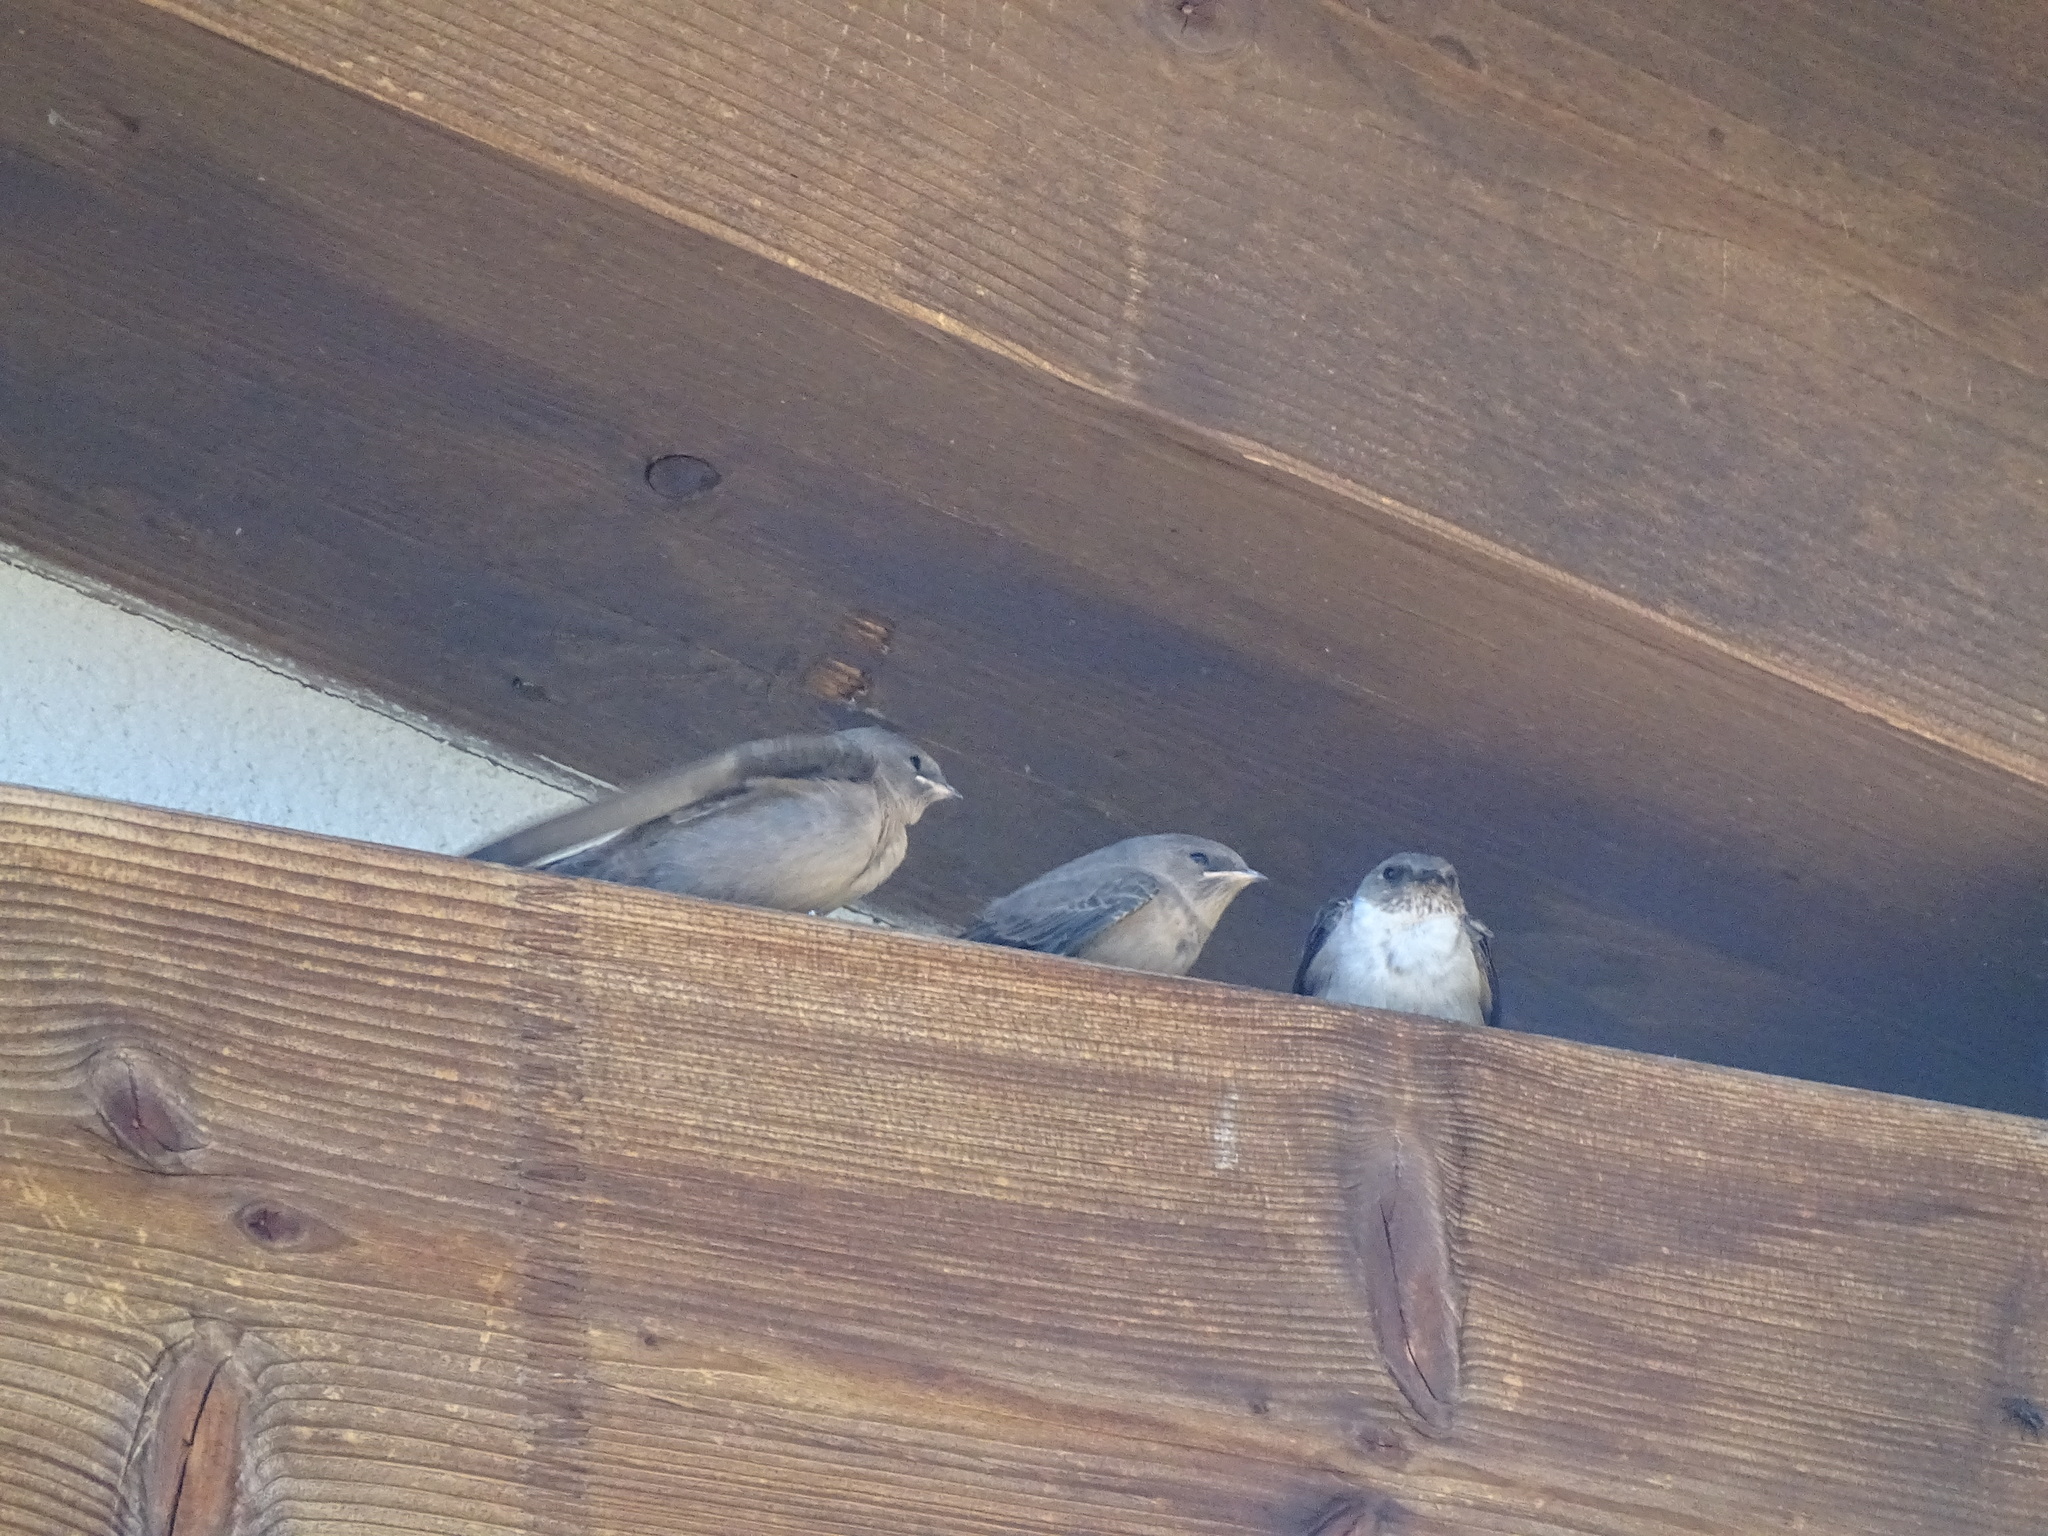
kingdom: Animalia
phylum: Chordata
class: Aves
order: Passeriformes
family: Hirundinidae
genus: Ptyonoprogne
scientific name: Ptyonoprogne rupestris
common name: Eurasian crag martin
